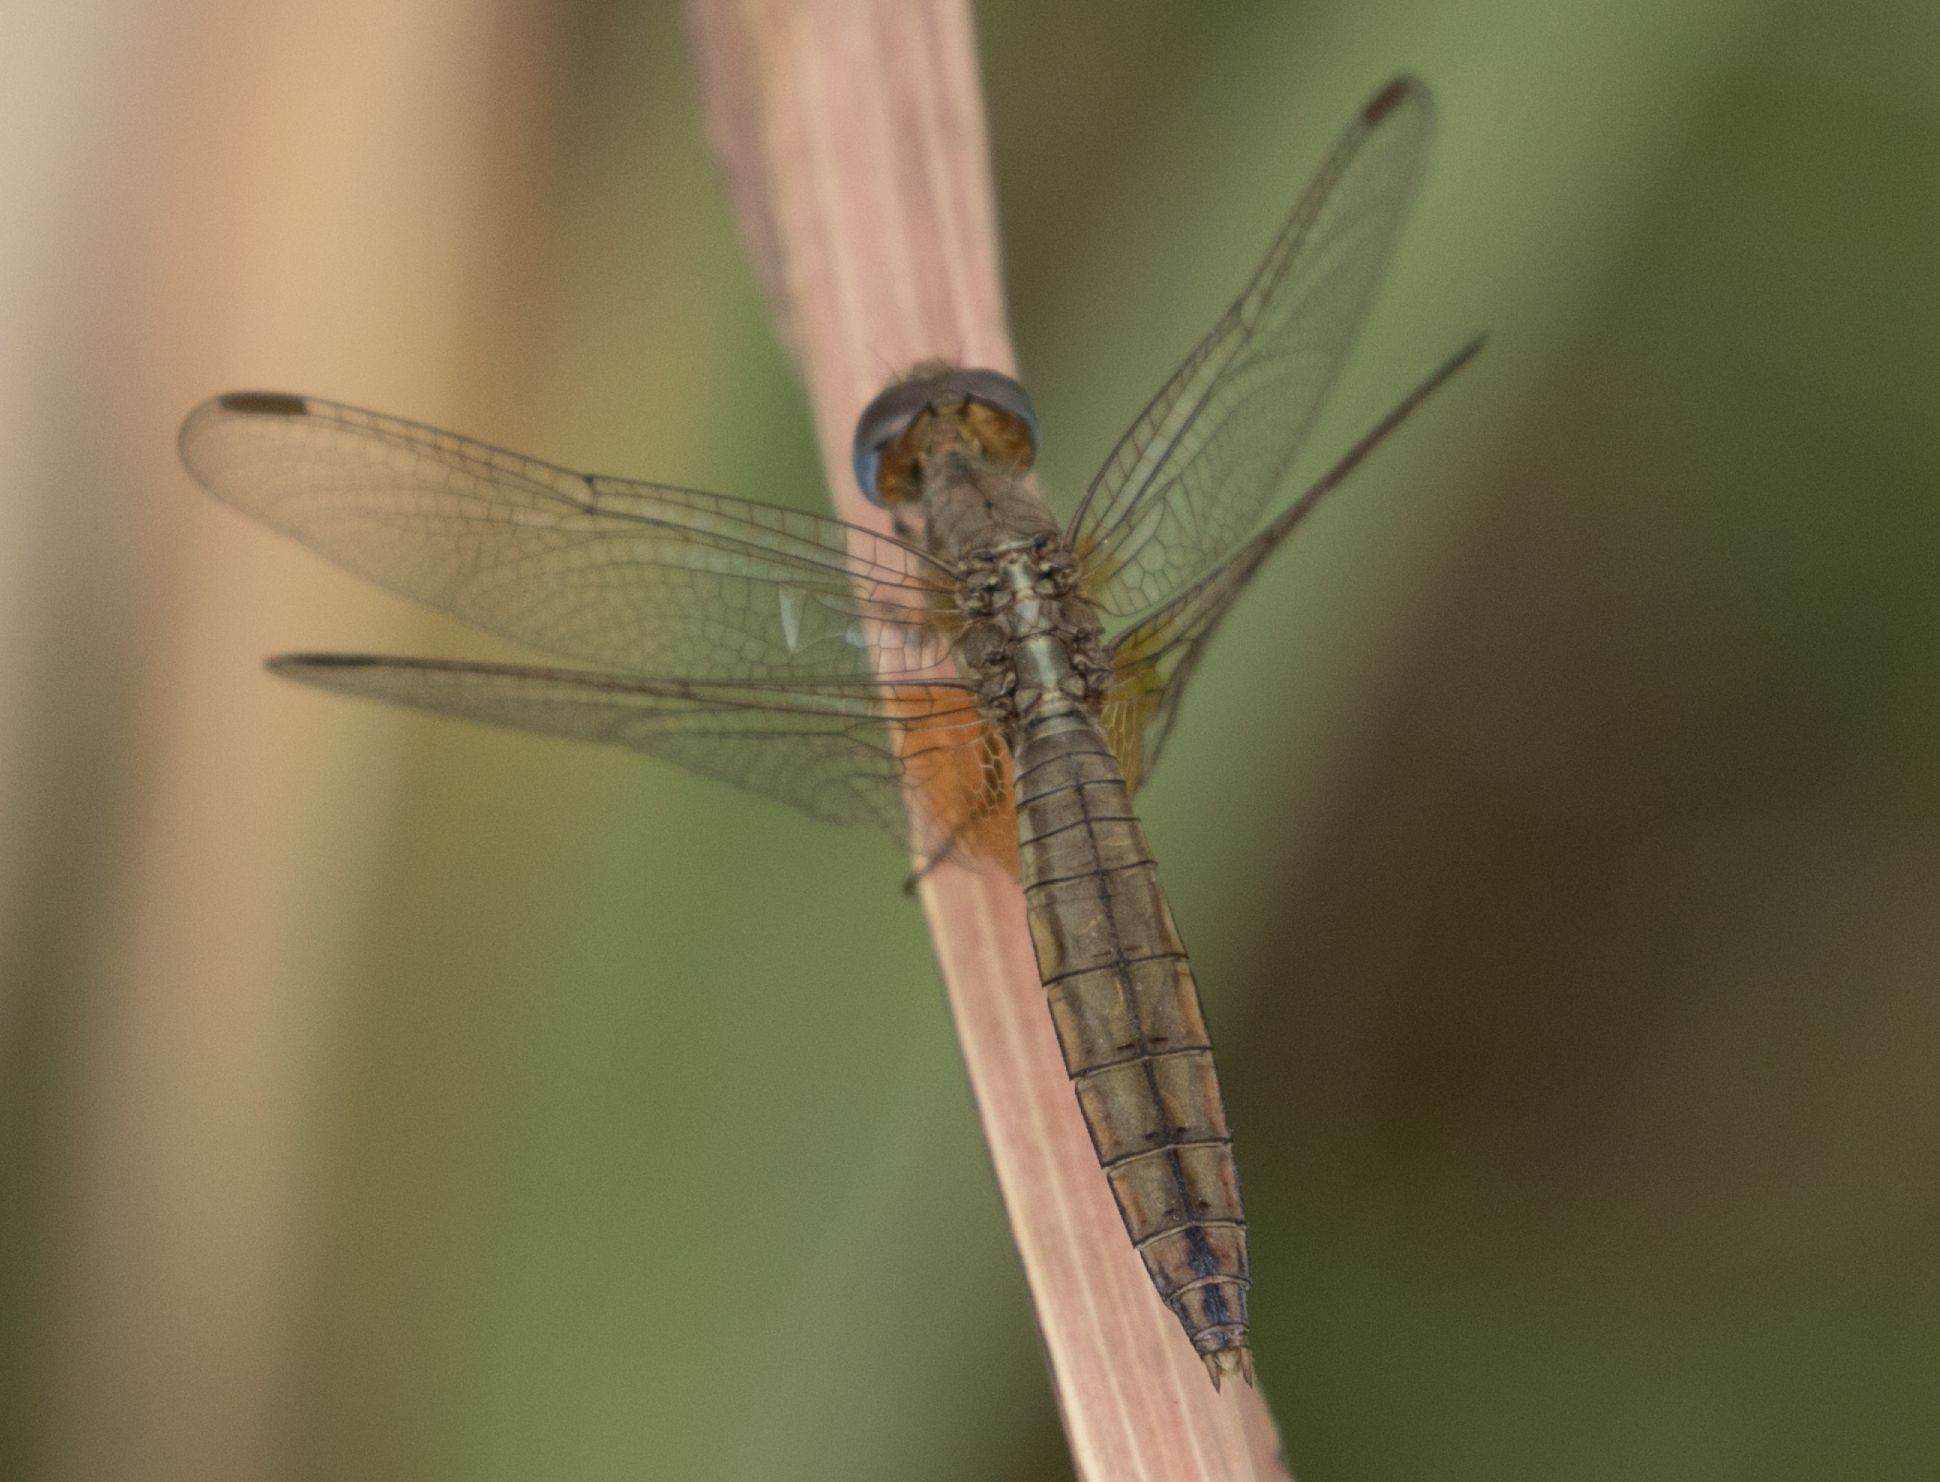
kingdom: Animalia
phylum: Arthropoda
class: Insecta
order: Odonata
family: Libellulidae
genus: Crocothemis
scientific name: Crocothemis erythraea
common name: Scarlet dragonfly
